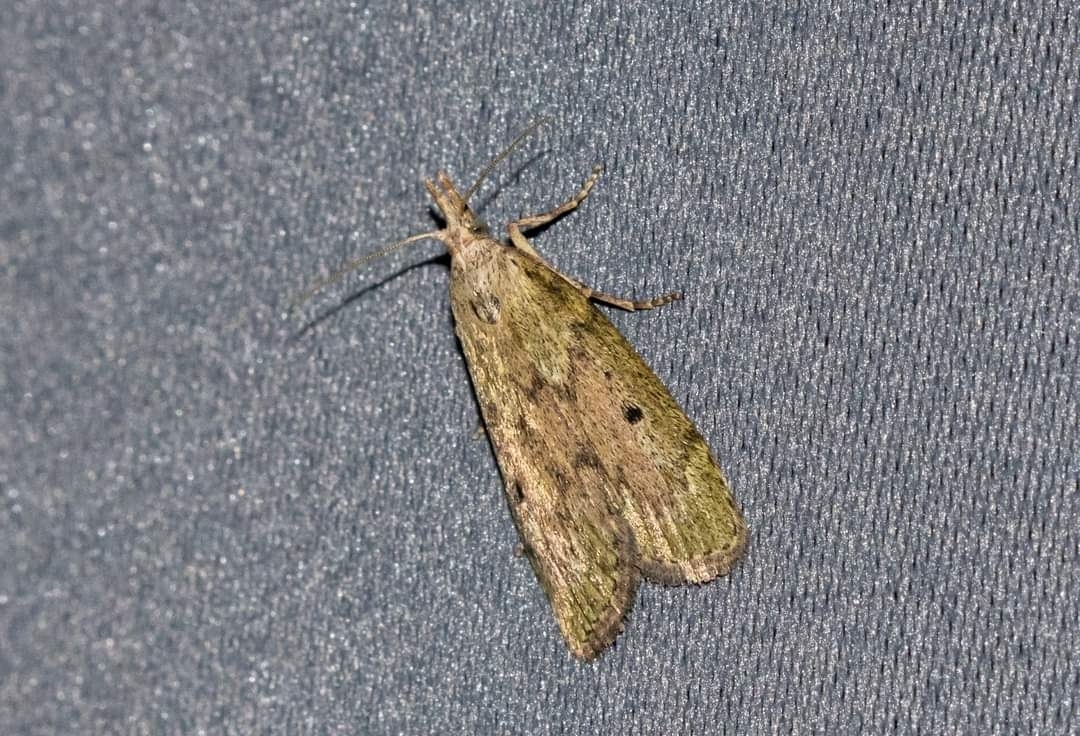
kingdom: Animalia
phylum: Arthropoda
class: Insecta
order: Lepidoptera
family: Pyralidae
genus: Aphomia
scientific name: Aphomia sociella
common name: Bee moth
